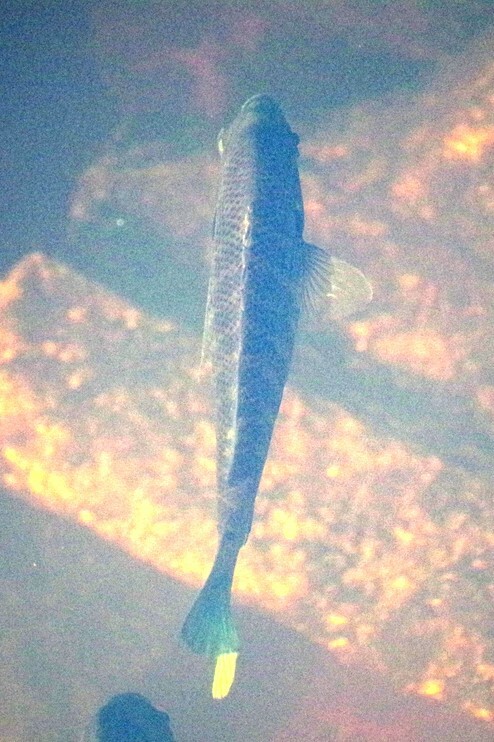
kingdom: Animalia
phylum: Chordata
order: Perciformes
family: Centrarchidae
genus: Lepomis
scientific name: Lepomis macrochirus
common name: Bluegill
